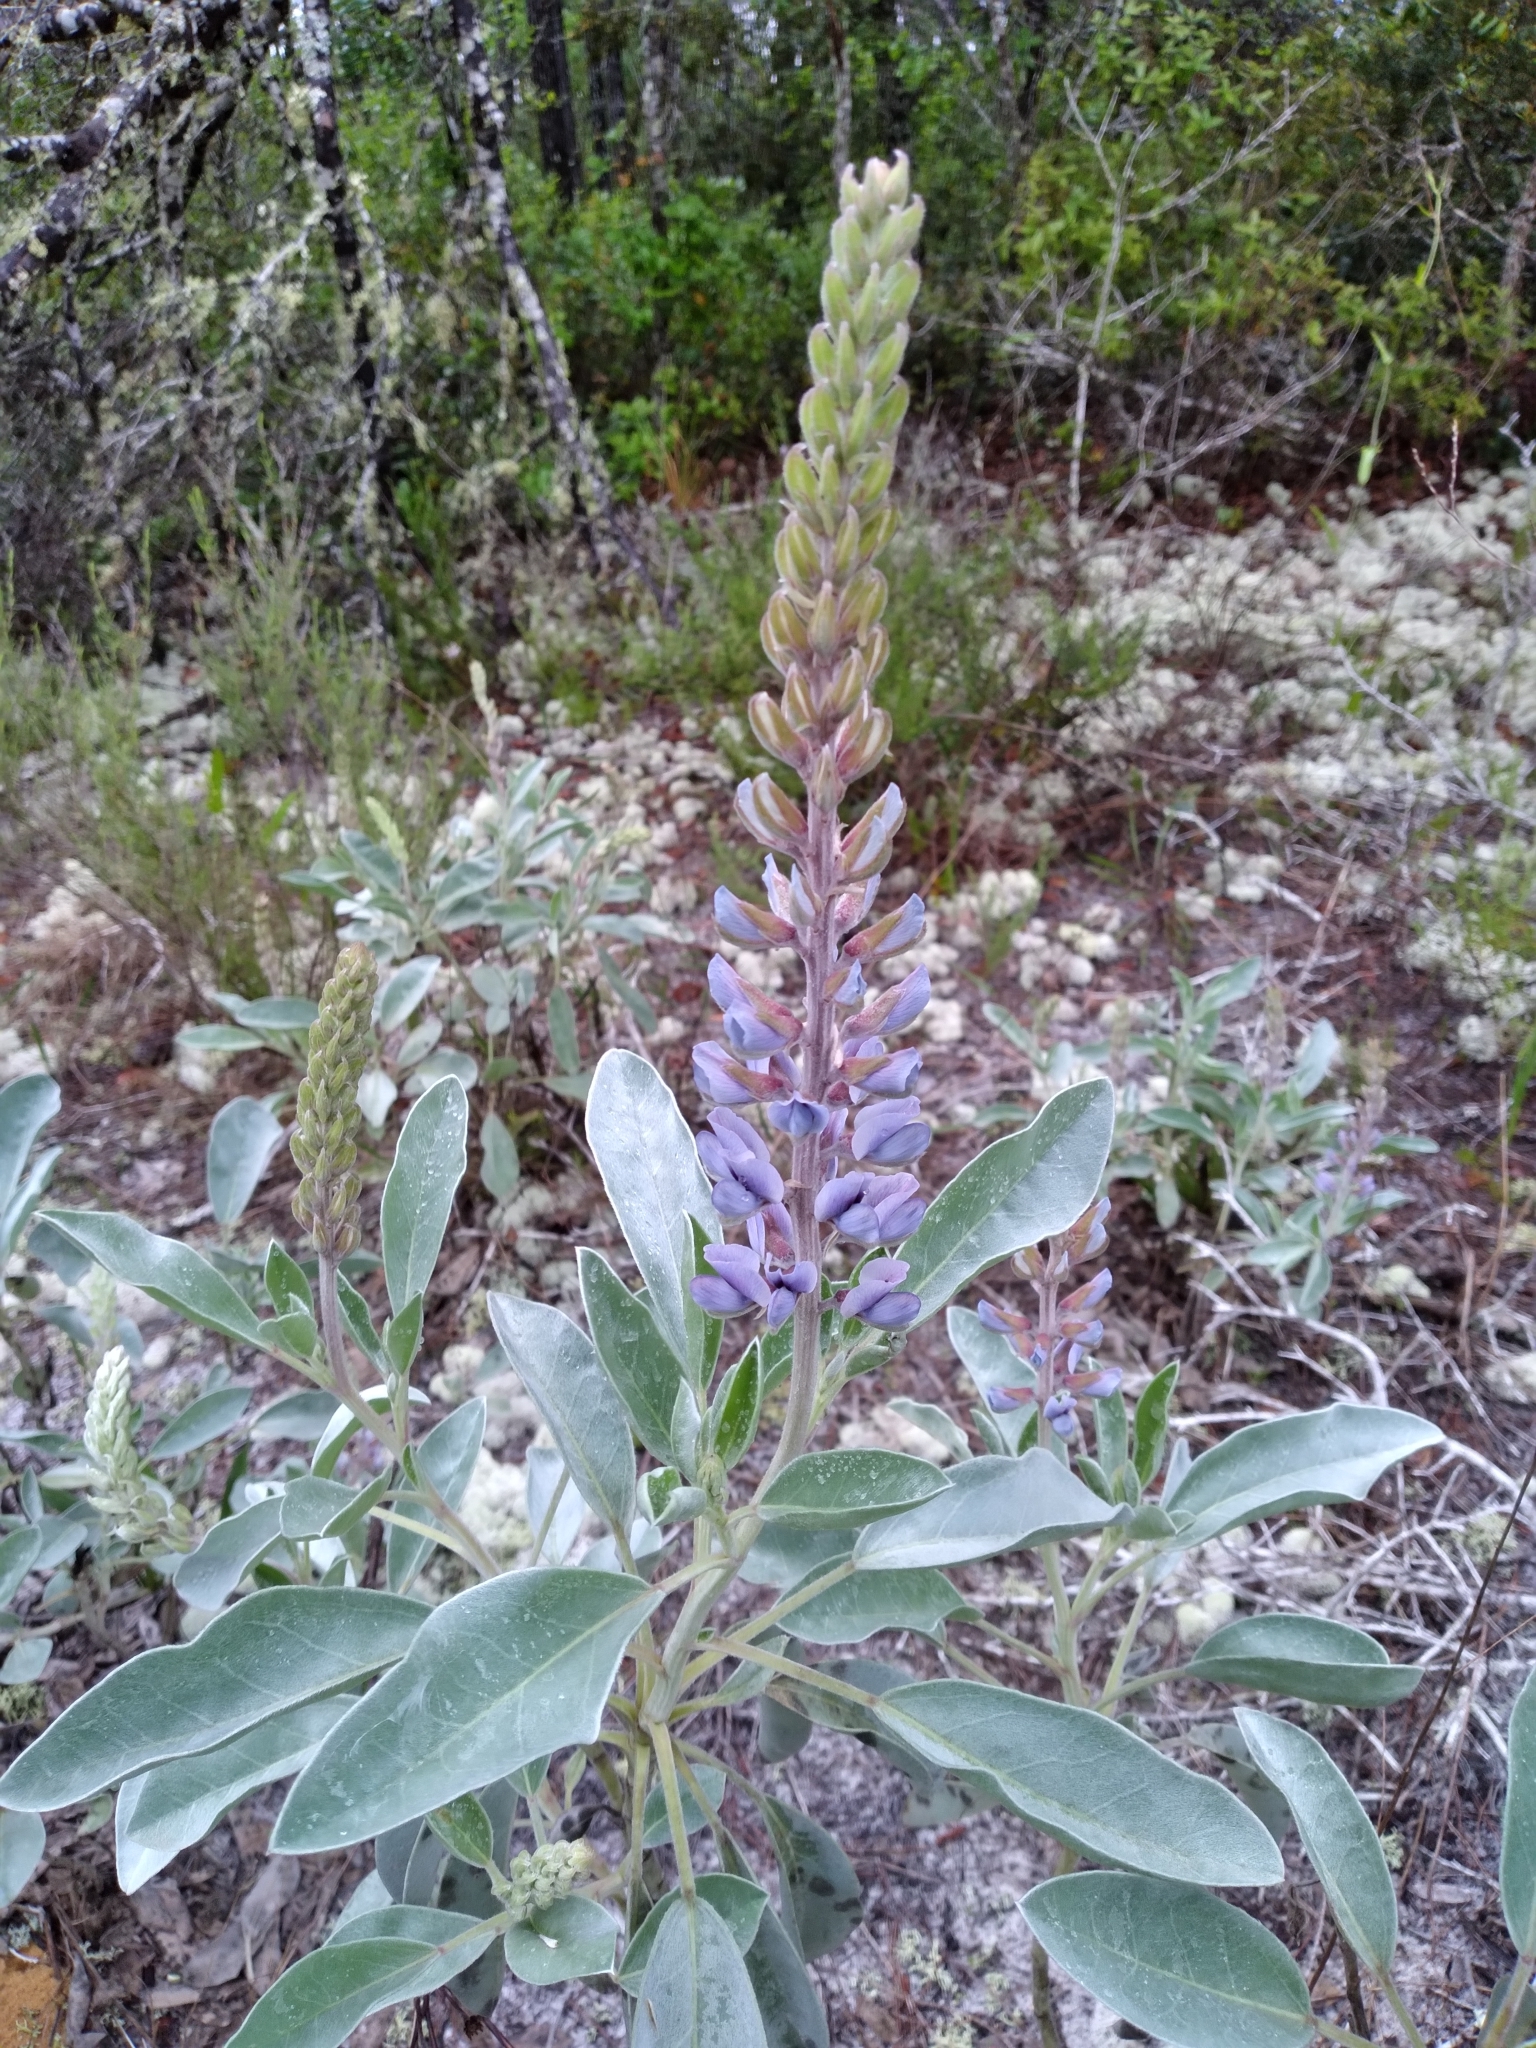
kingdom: Plantae
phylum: Tracheophyta
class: Magnoliopsida
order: Fabales
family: Fabaceae
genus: Lupinus
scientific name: Lupinus westianus
